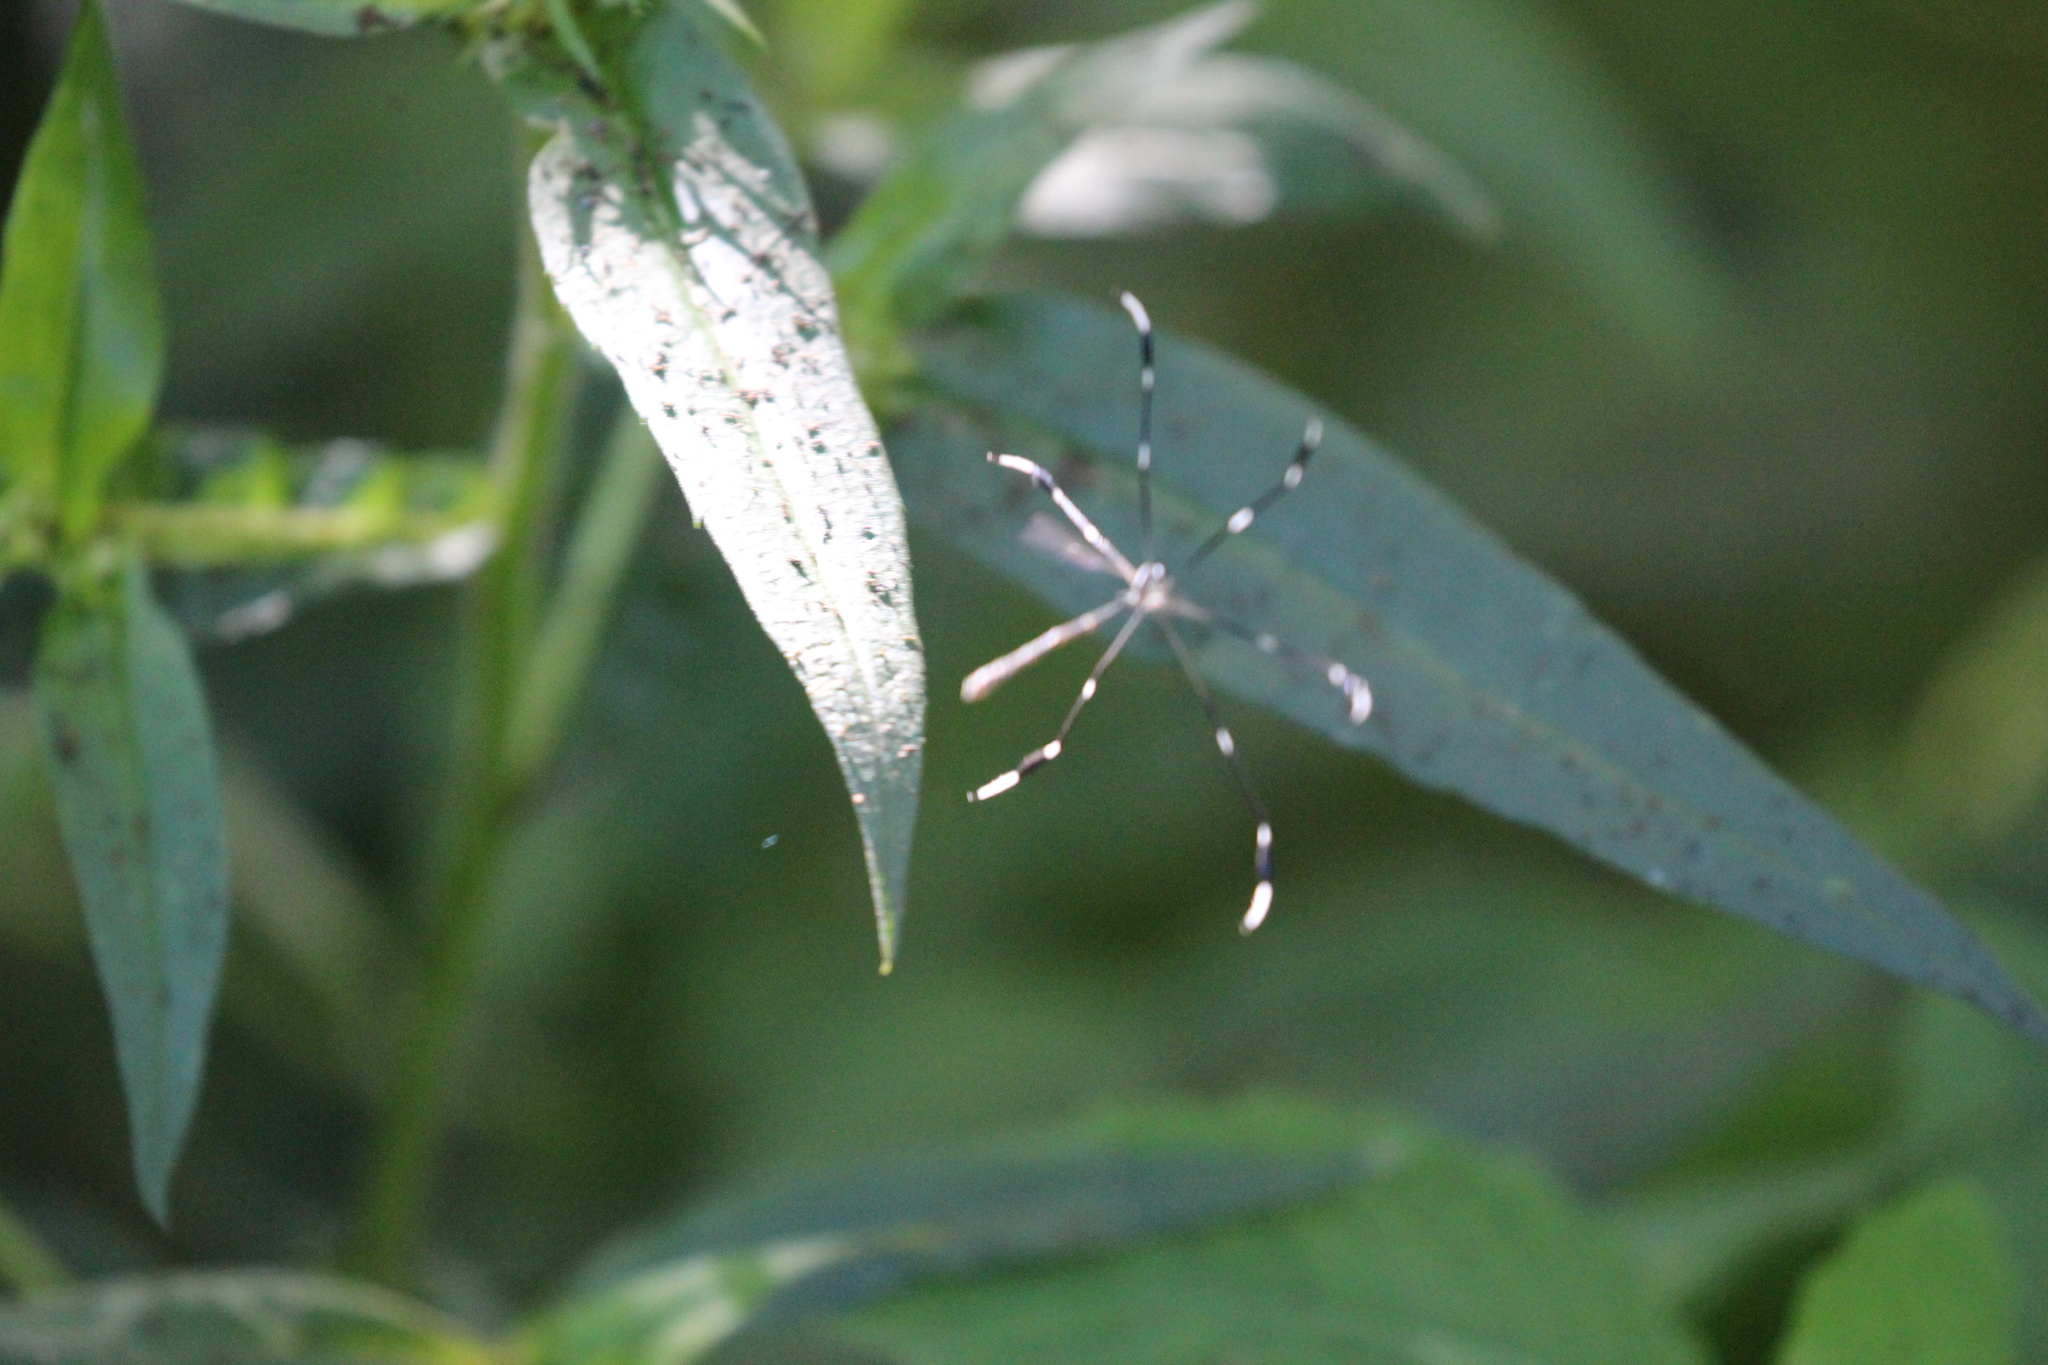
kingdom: Animalia
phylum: Arthropoda
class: Insecta
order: Diptera
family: Ptychopteridae
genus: Bittacomorpha
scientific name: Bittacomorpha clavipes
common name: Eastern phantom crane fly
